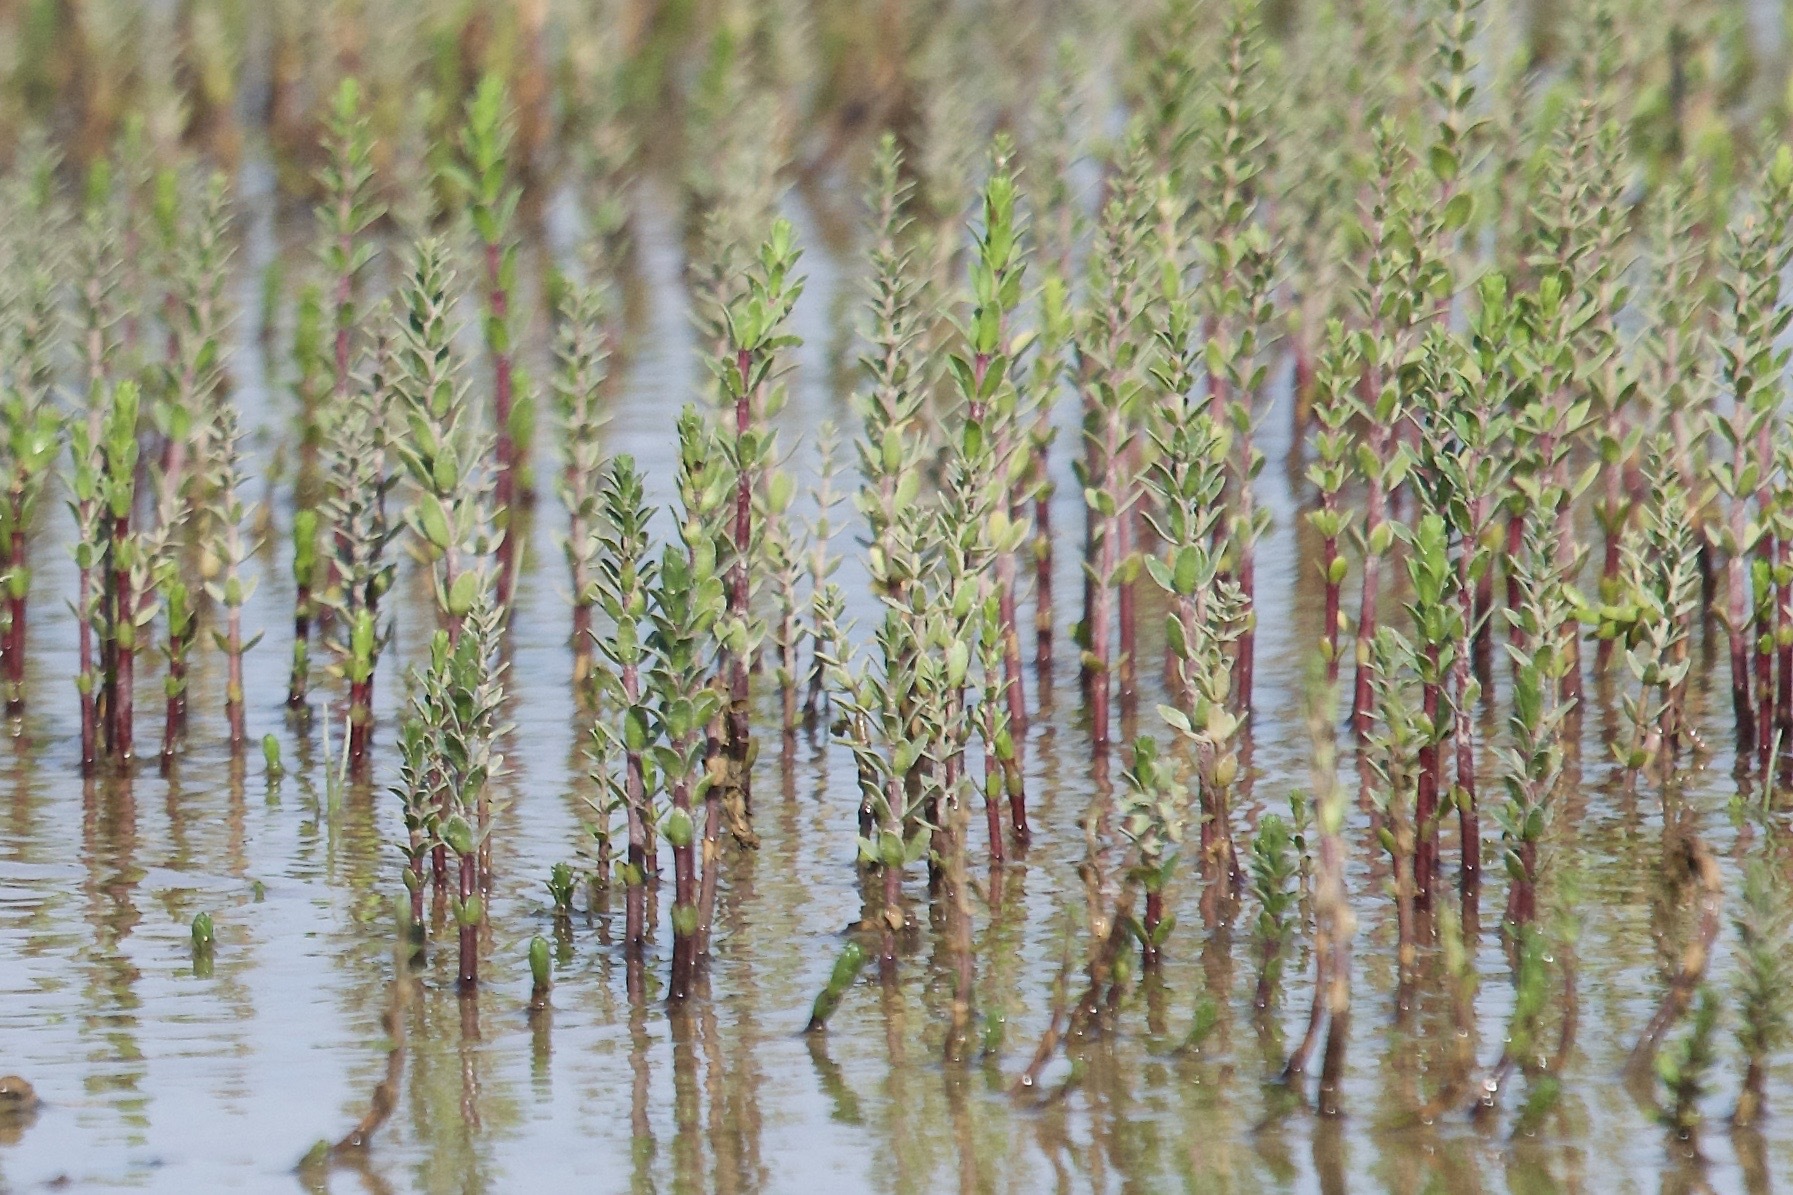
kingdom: Plantae
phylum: Tracheophyta
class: Magnoliopsida
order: Lamiales
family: Plantaginaceae
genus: Hippuris
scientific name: Hippuris tetraphylla
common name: Four-leaved mare's-tail
